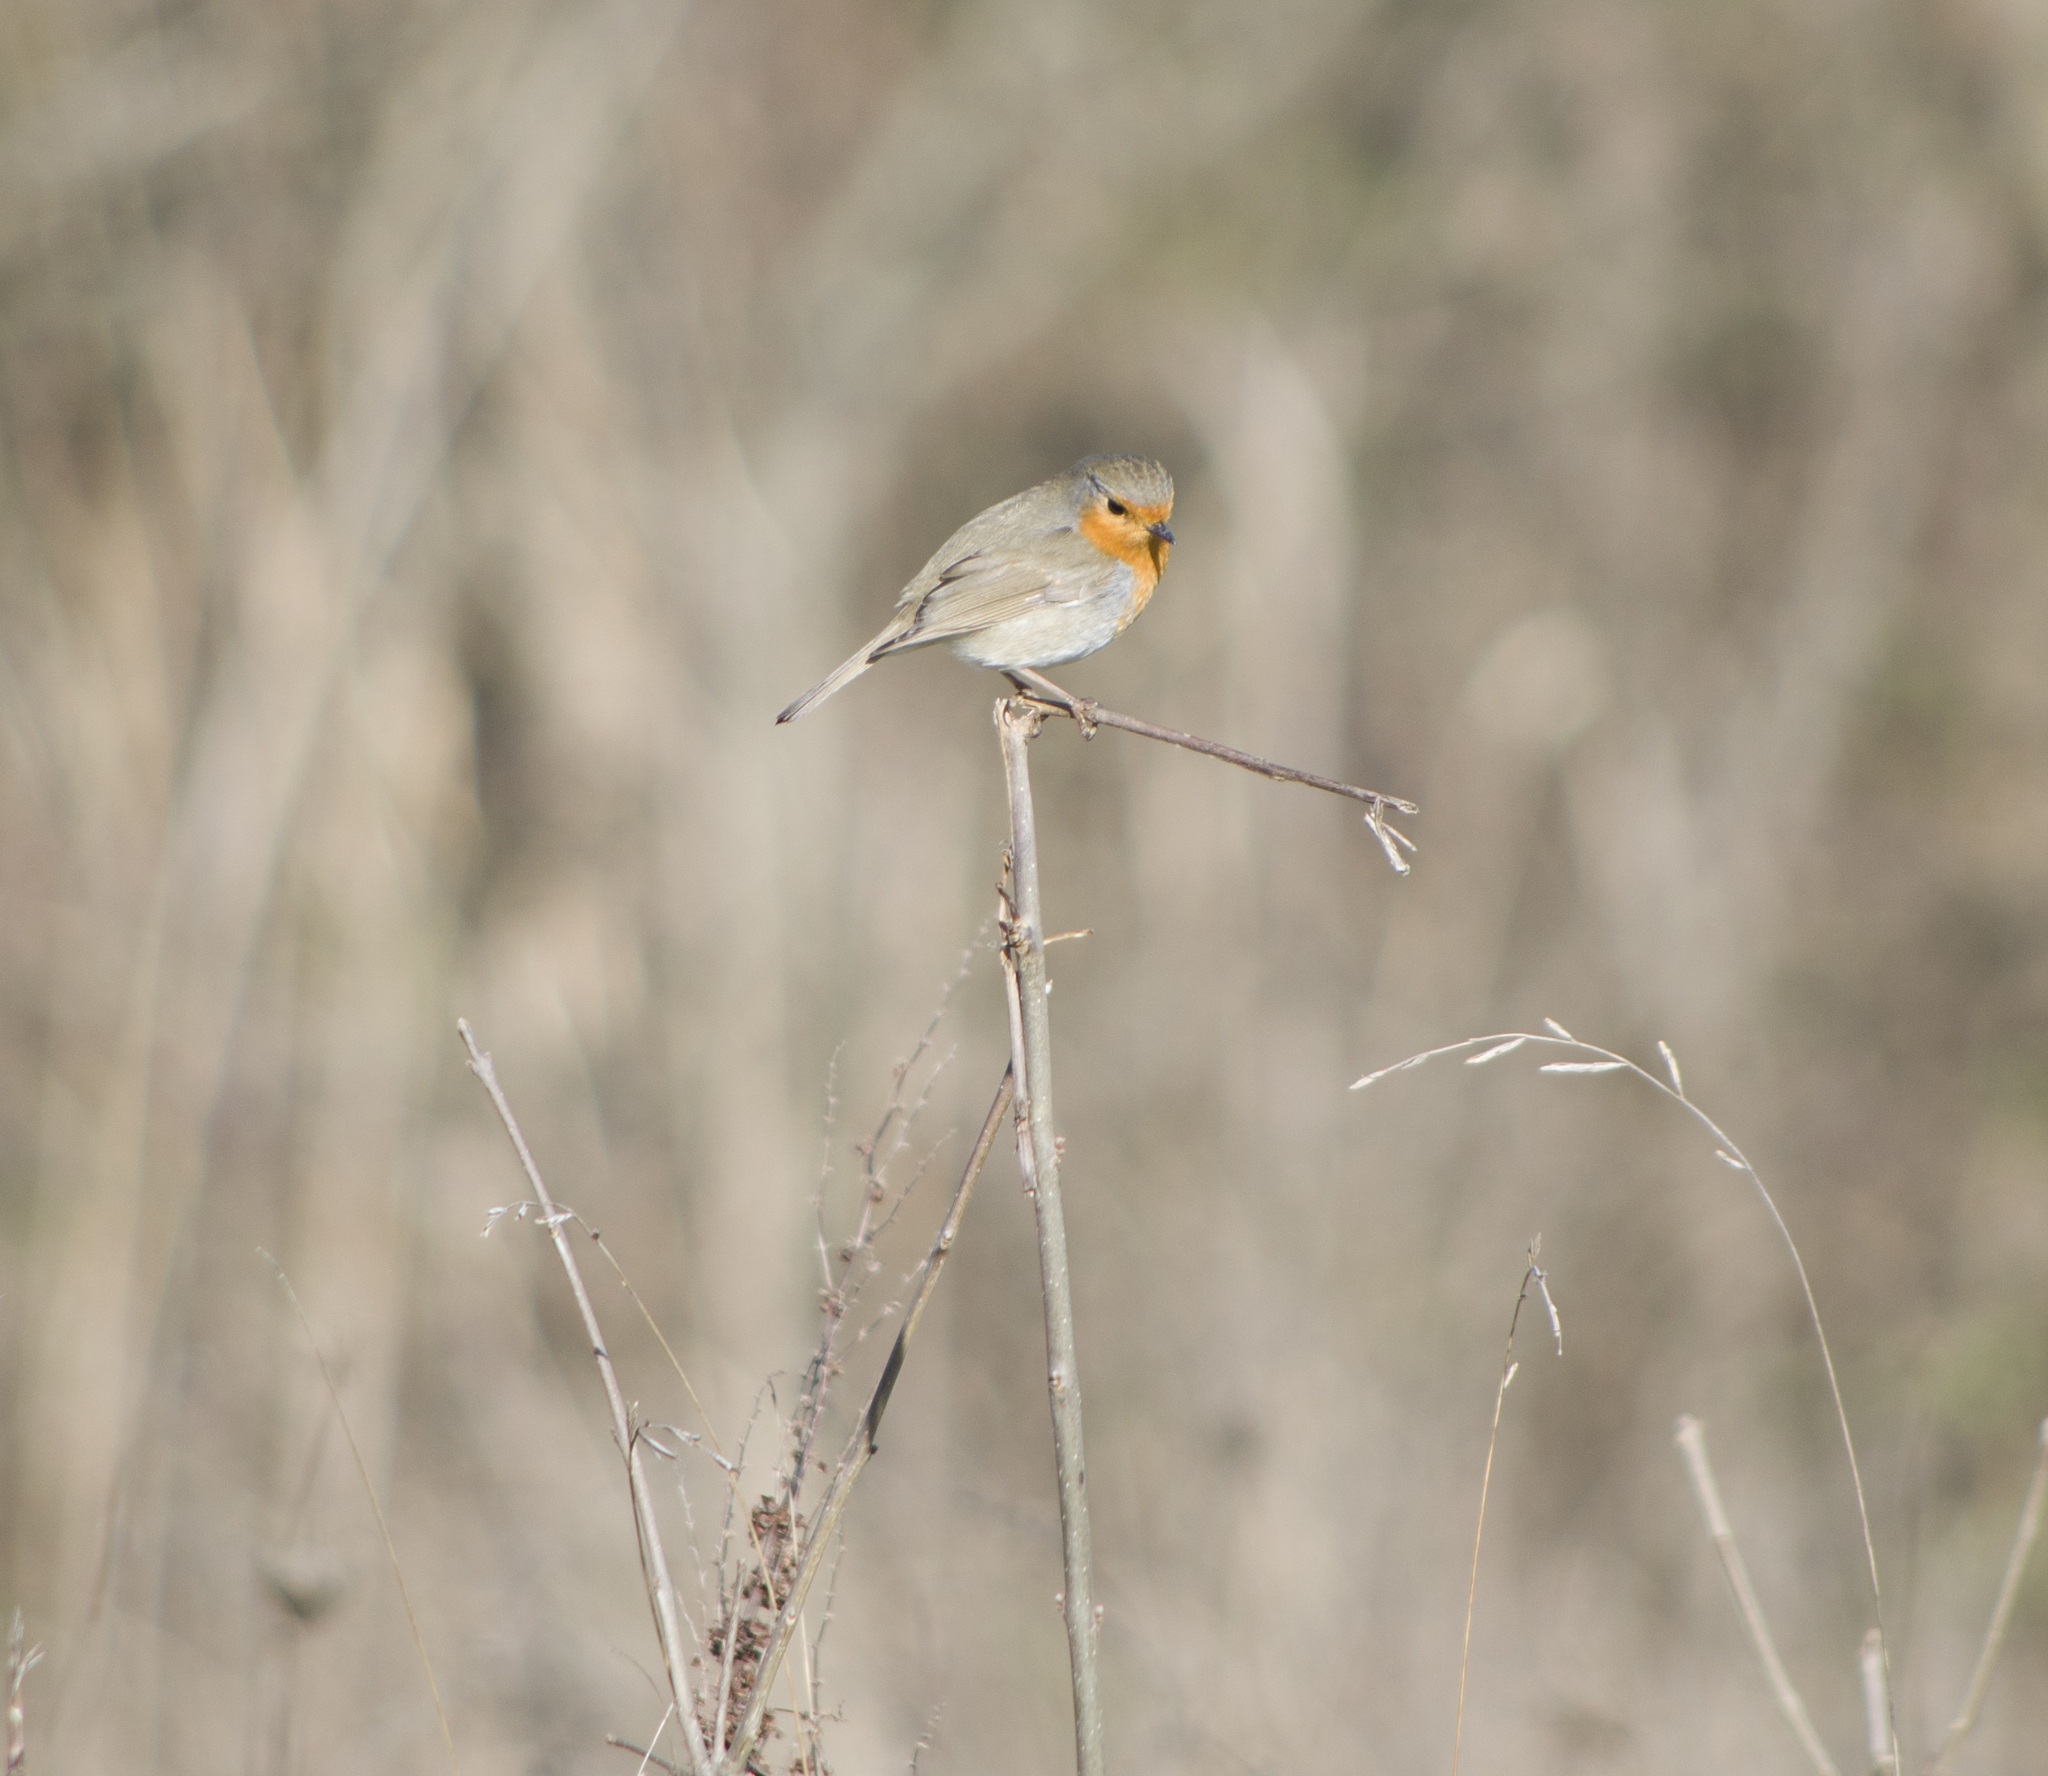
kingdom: Animalia
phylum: Chordata
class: Aves
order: Passeriformes
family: Muscicapidae
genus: Erithacus
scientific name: Erithacus rubecula
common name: European robin
